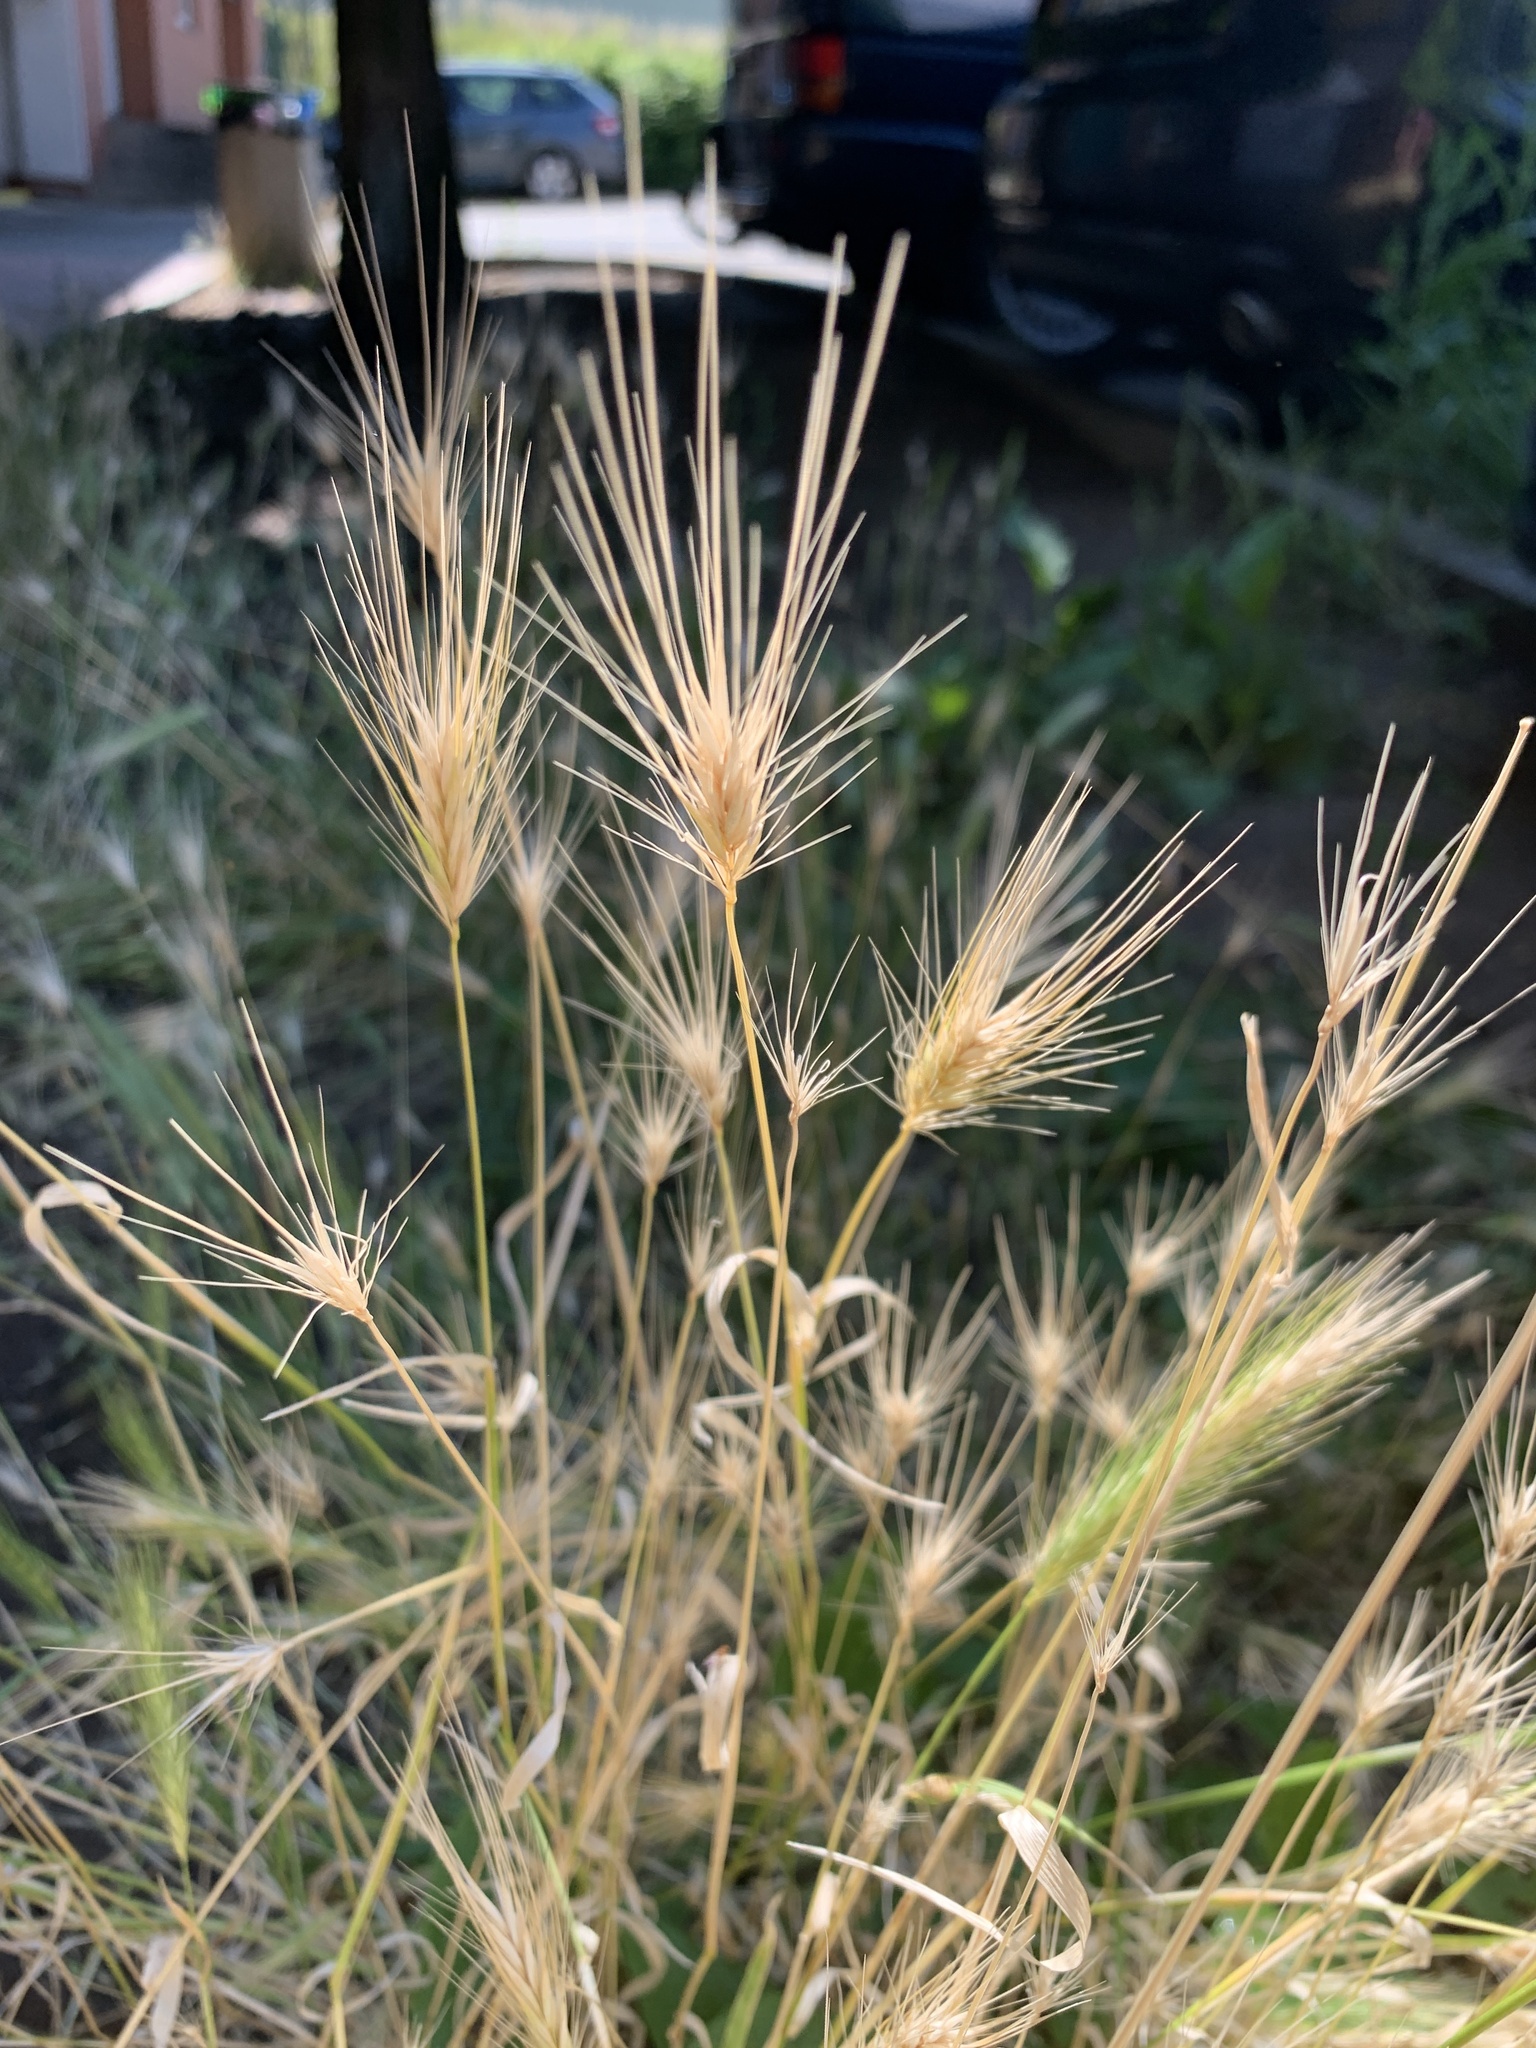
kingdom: Plantae
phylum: Tracheophyta
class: Liliopsida
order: Poales
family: Poaceae
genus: Hordeum
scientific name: Hordeum murinum
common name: Wall barley
